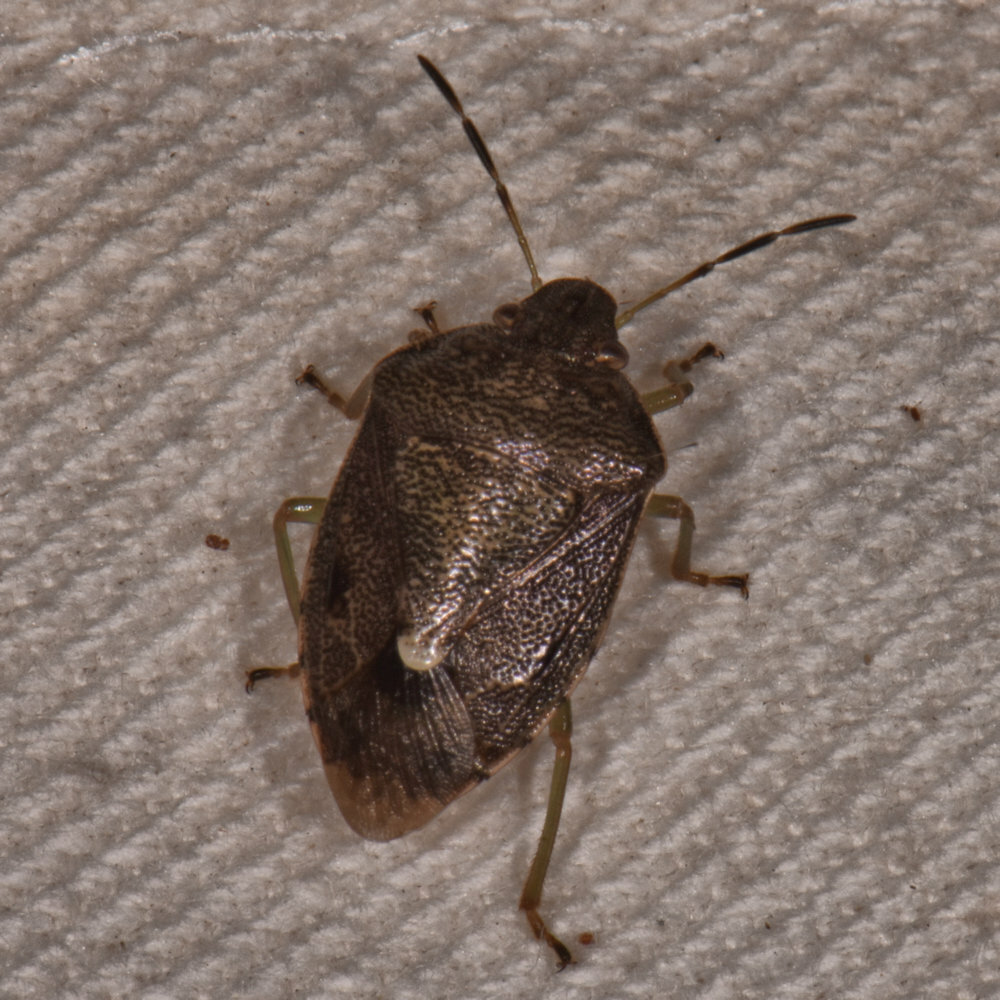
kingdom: Animalia
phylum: Arthropoda
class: Insecta
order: Hemiptera
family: Pentatomidae
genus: Banasa
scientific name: Banasa sordida
